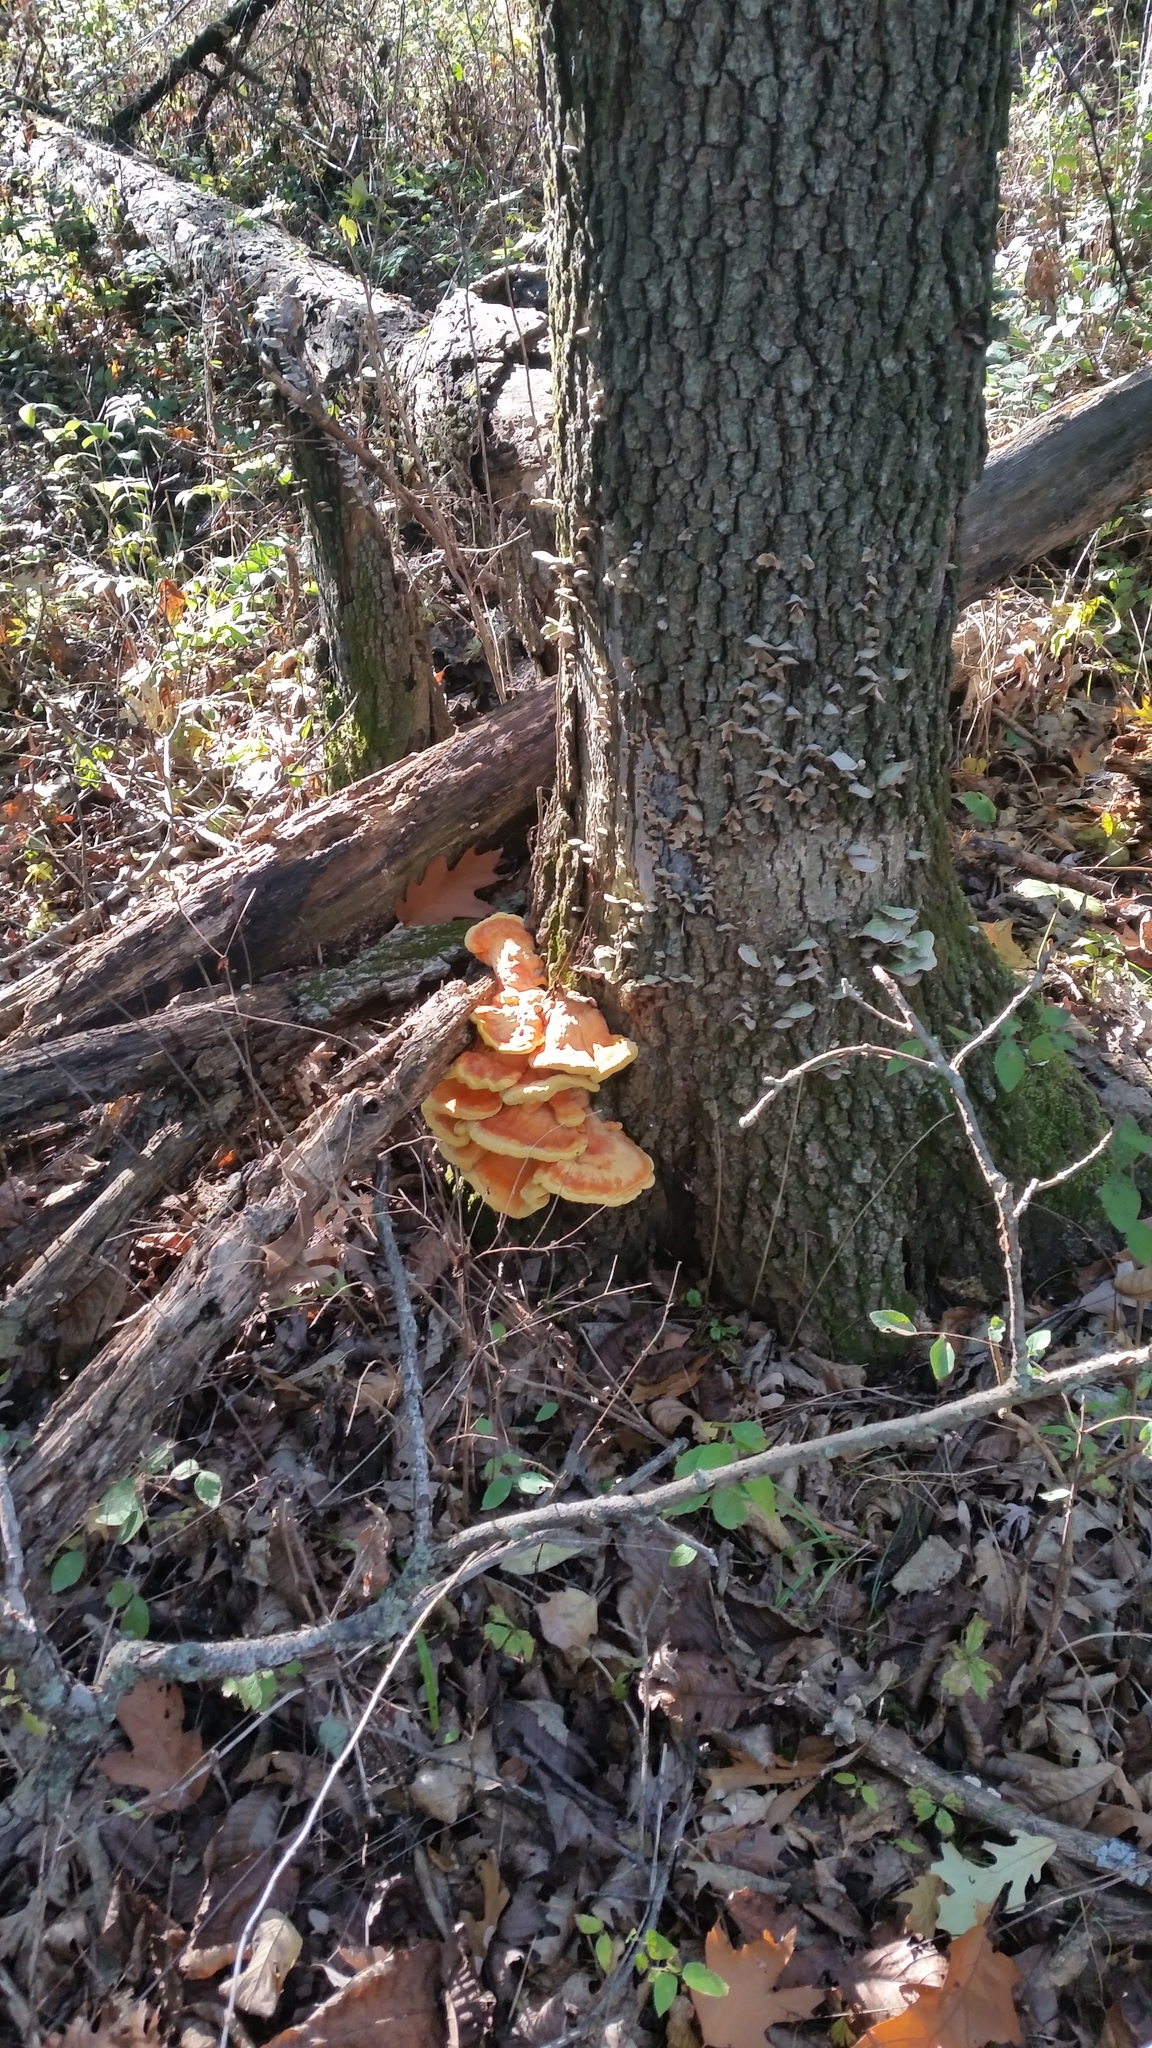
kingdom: Fungi
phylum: Basidiomycota
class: Agaricomycetes
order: Polyporales
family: Laetiporaceae
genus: Laetiporus
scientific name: Laetiporus sulphureus
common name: Chicken of the woods
